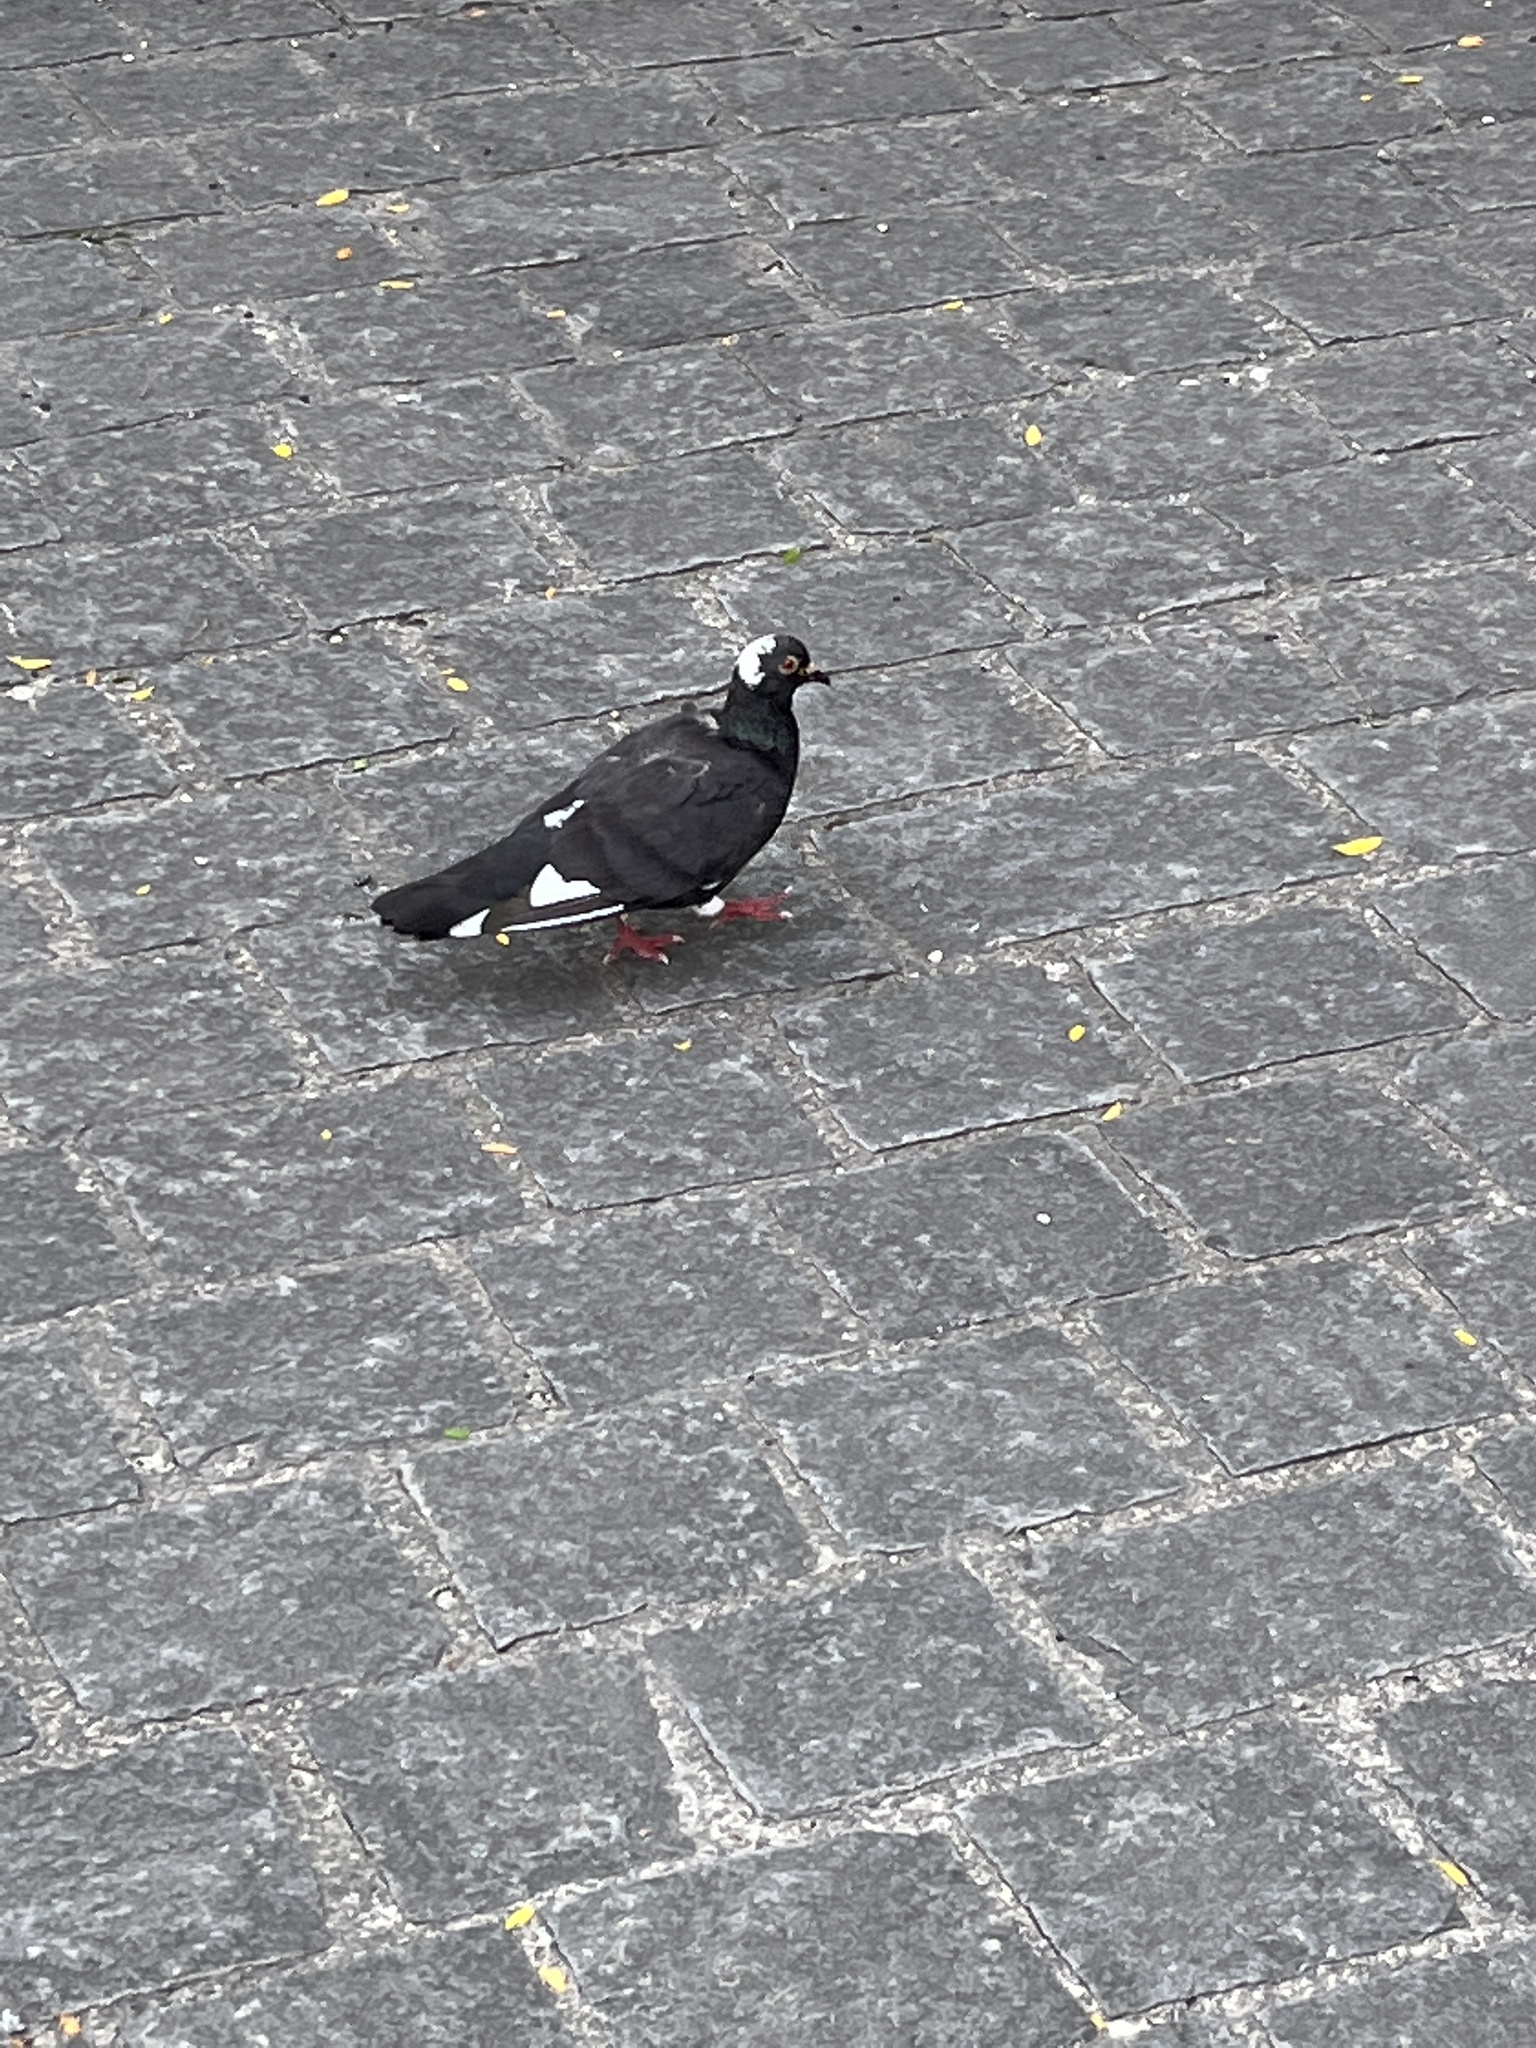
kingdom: Animalia
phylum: Chordata
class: Aves
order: Columbiformes
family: Columbidae
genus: Columba
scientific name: Columba livia
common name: Rock pigeon
